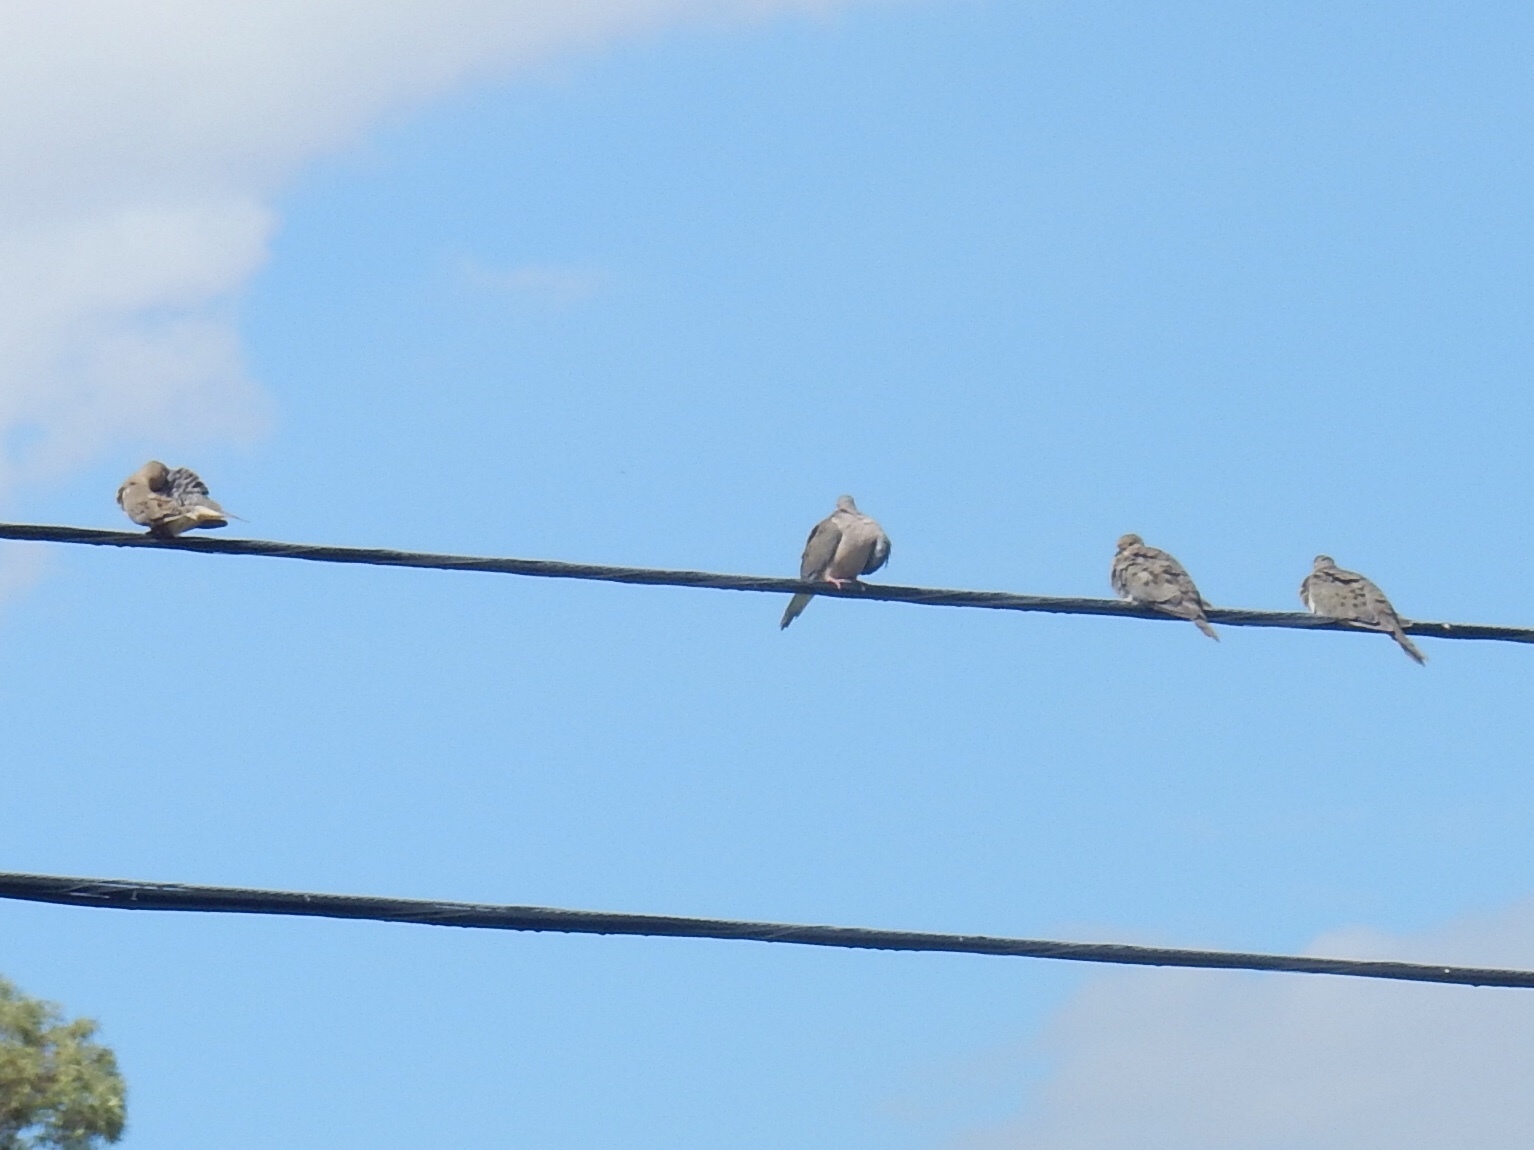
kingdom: Animalia
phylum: Chordata
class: Aves
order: Columbiformes
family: Columbidae
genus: Zenaida
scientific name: Zenaida macroura
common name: Mourning dove
